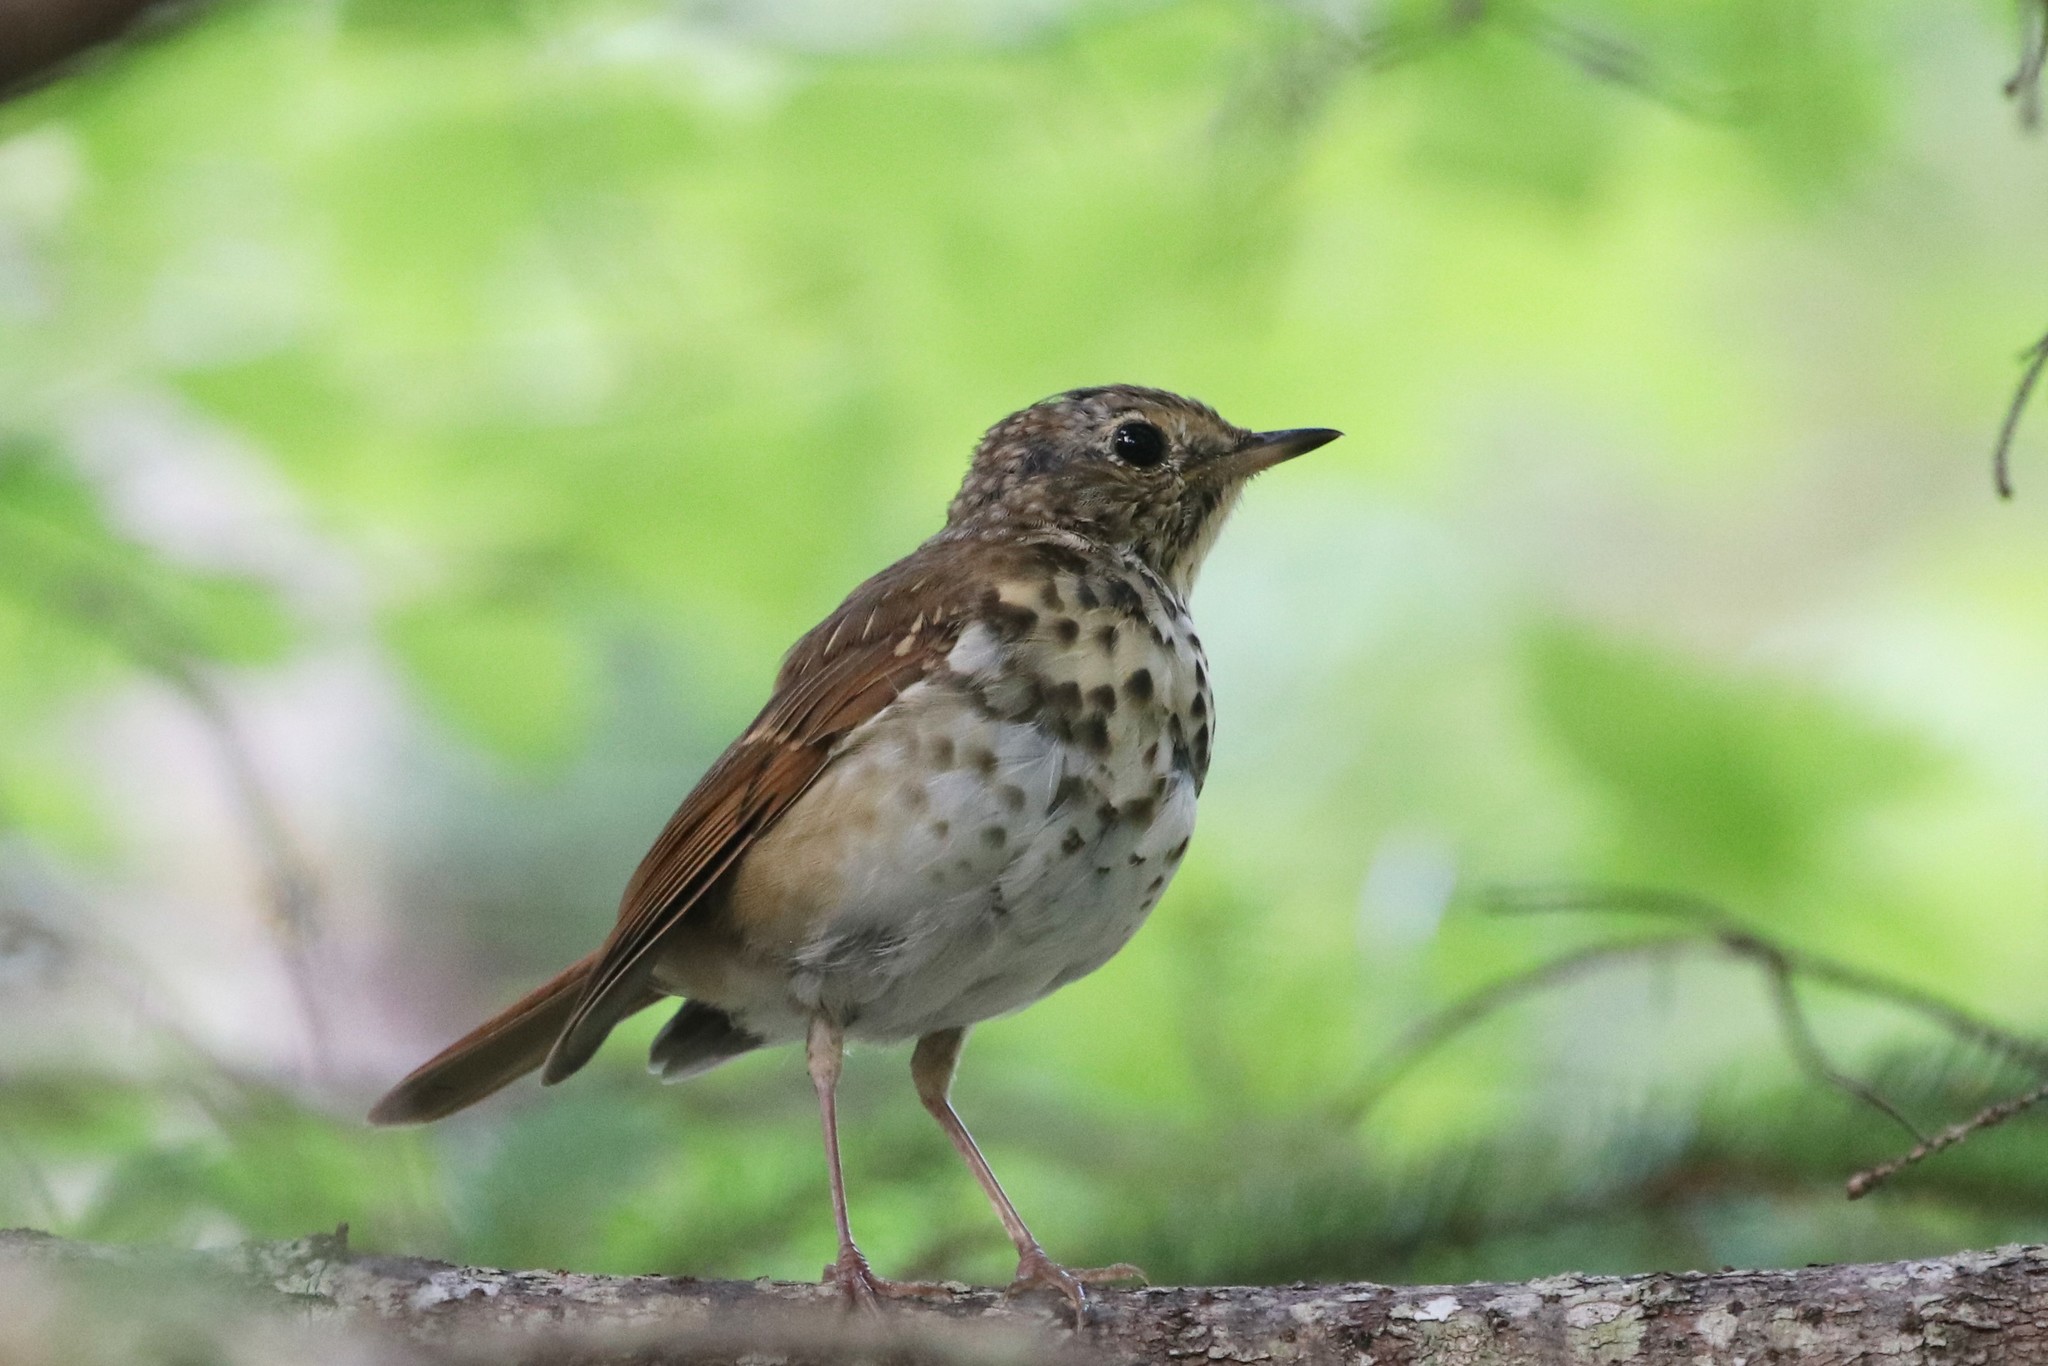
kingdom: Animalia
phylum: Chordata
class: Aves
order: Passeriformes
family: Turdidae
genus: Catharus
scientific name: Catharus guttatus
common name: Hermit thrush
